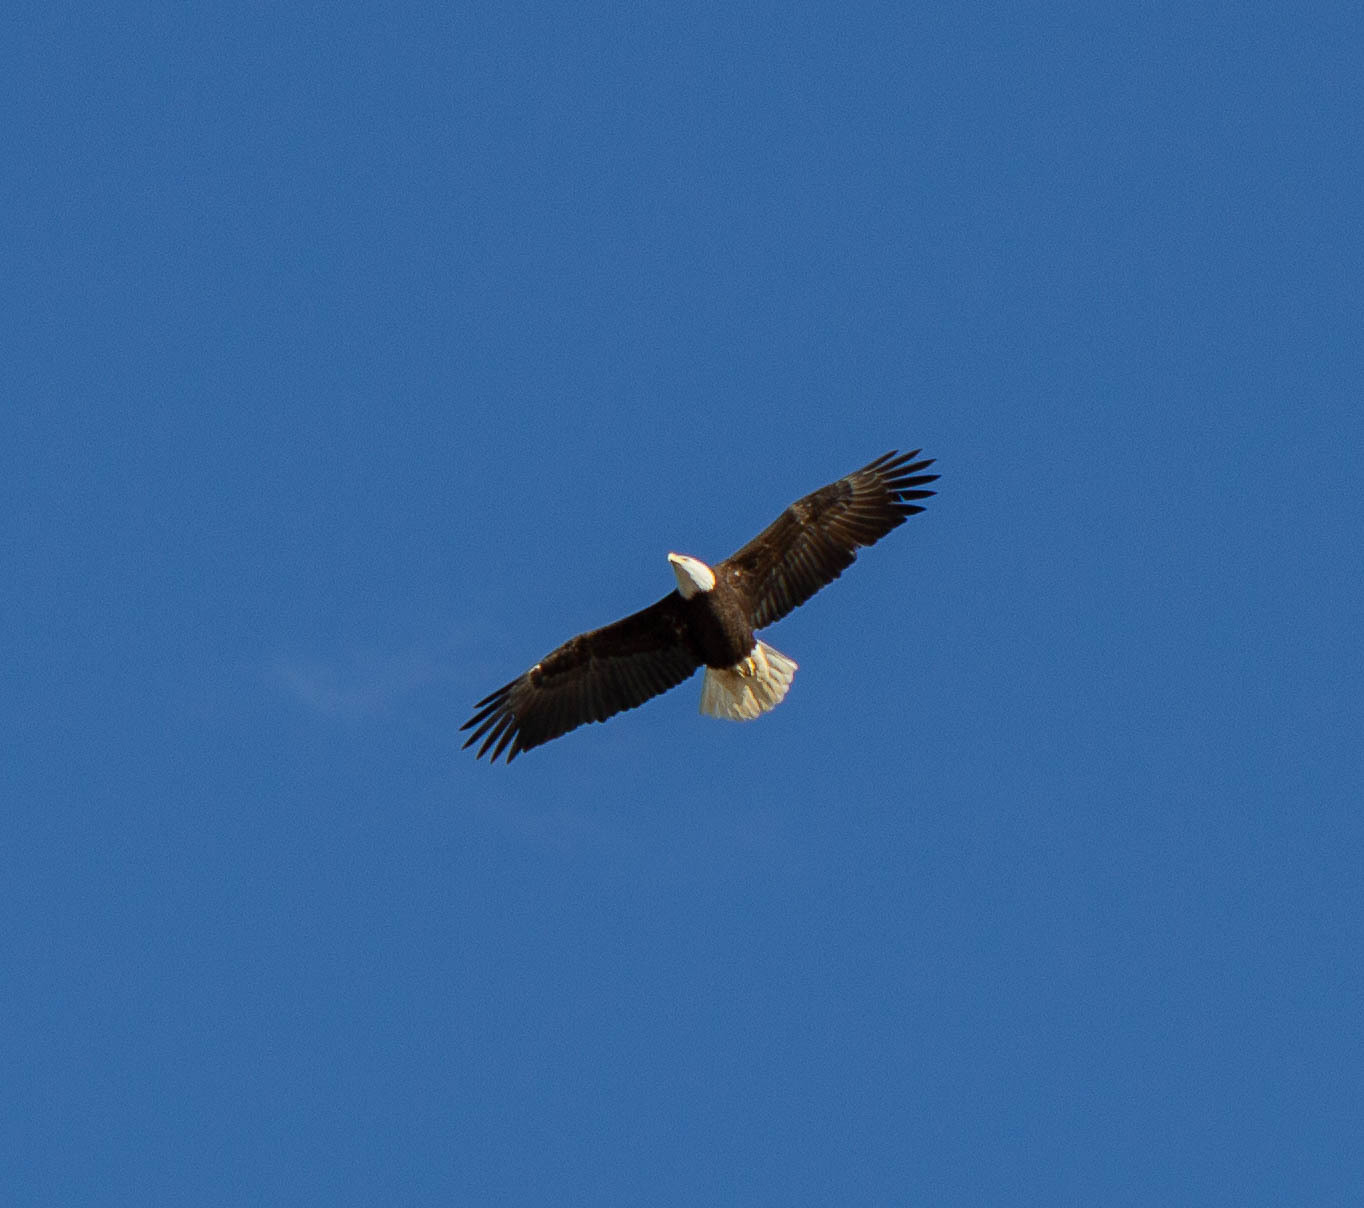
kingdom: Animalia
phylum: Chordata
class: Aves
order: Accipitriformes
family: Accipitridae
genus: Haliaeetus
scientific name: Haliaeetus leucocephalus
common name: Bald eagle
